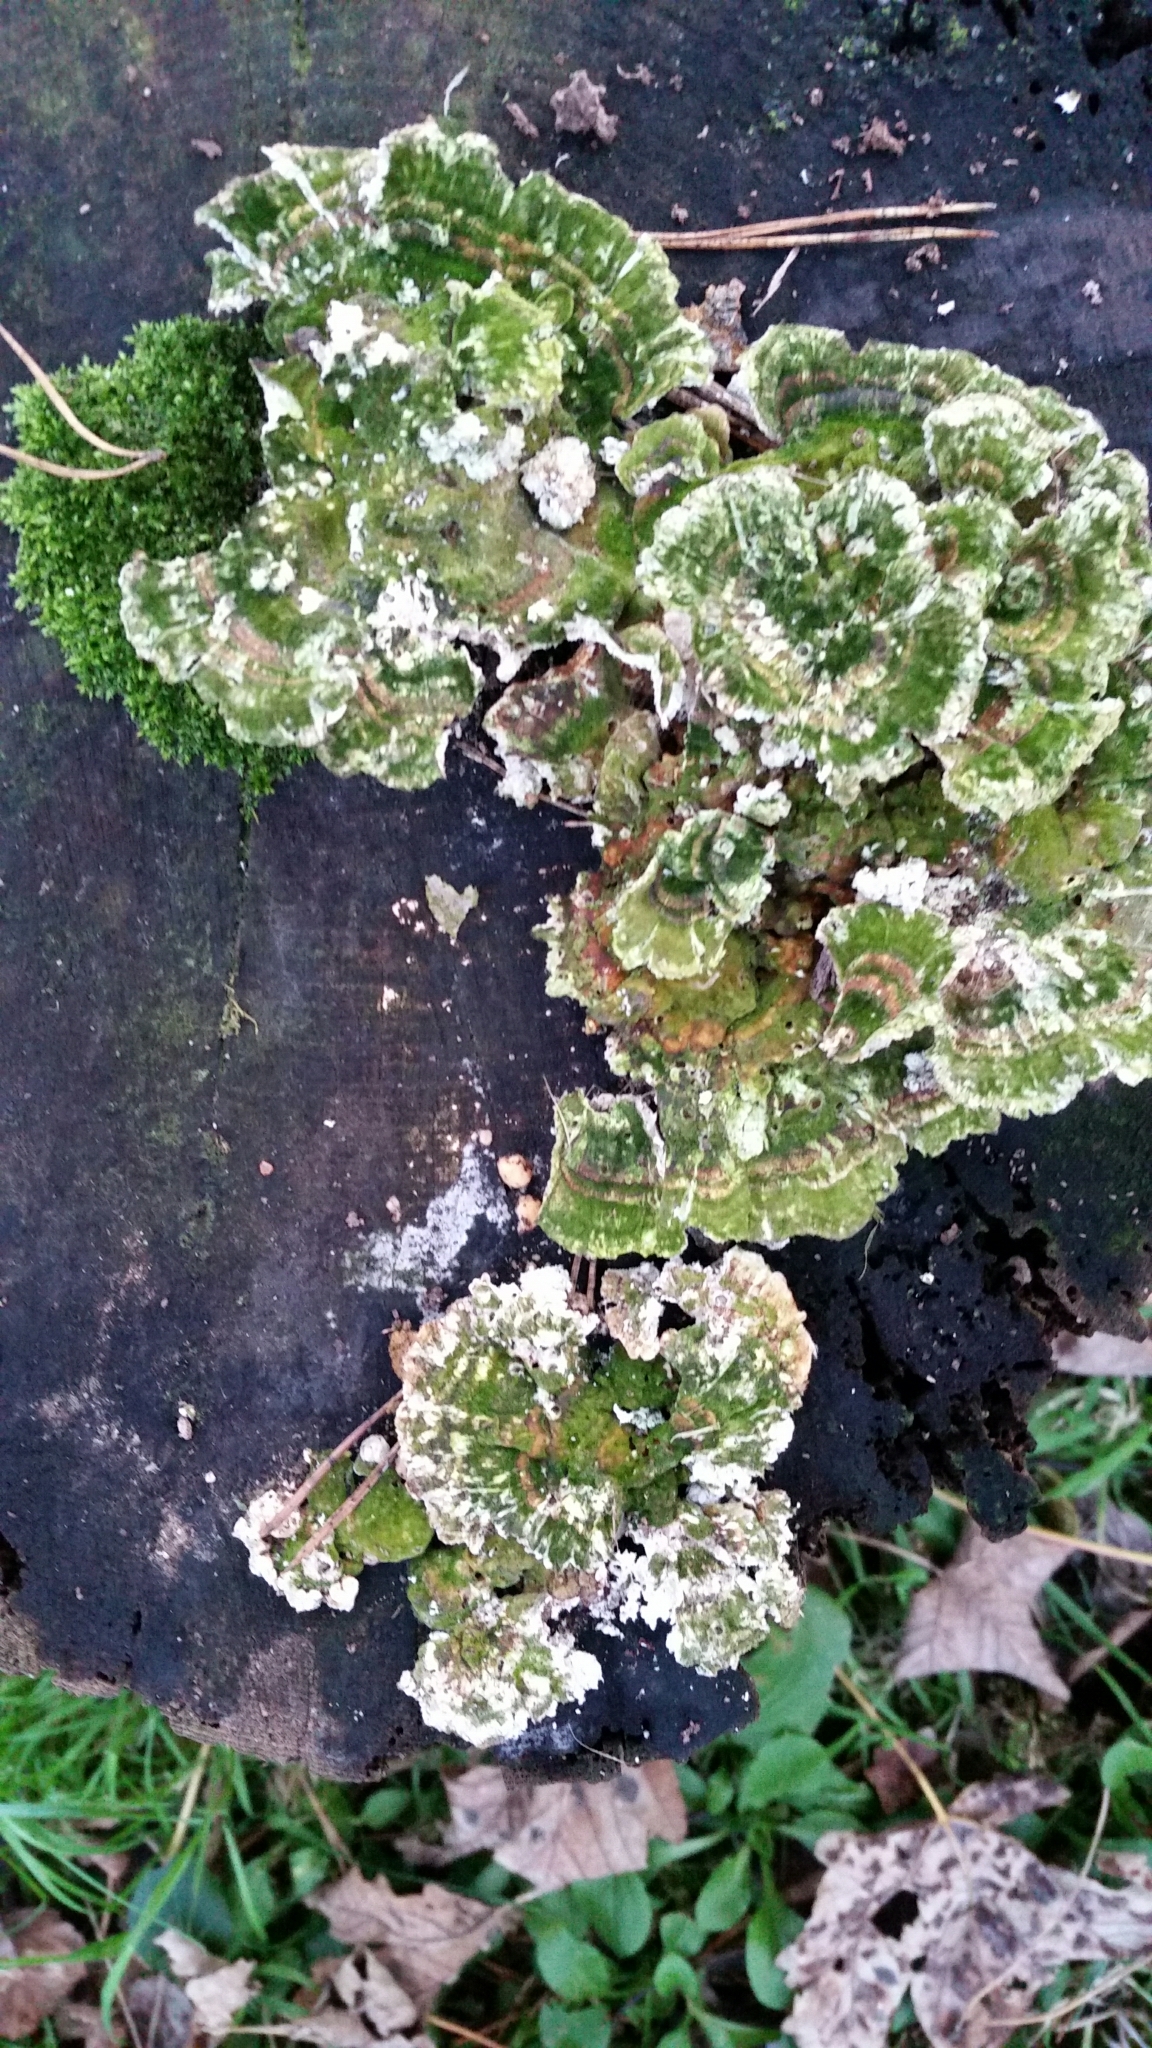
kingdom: Fungi
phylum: Basidiomycota
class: Agaricomycetes
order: Polyporales
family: Polyporaceae
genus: Trametes
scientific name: Trametes versicolor
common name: Turkeytail
